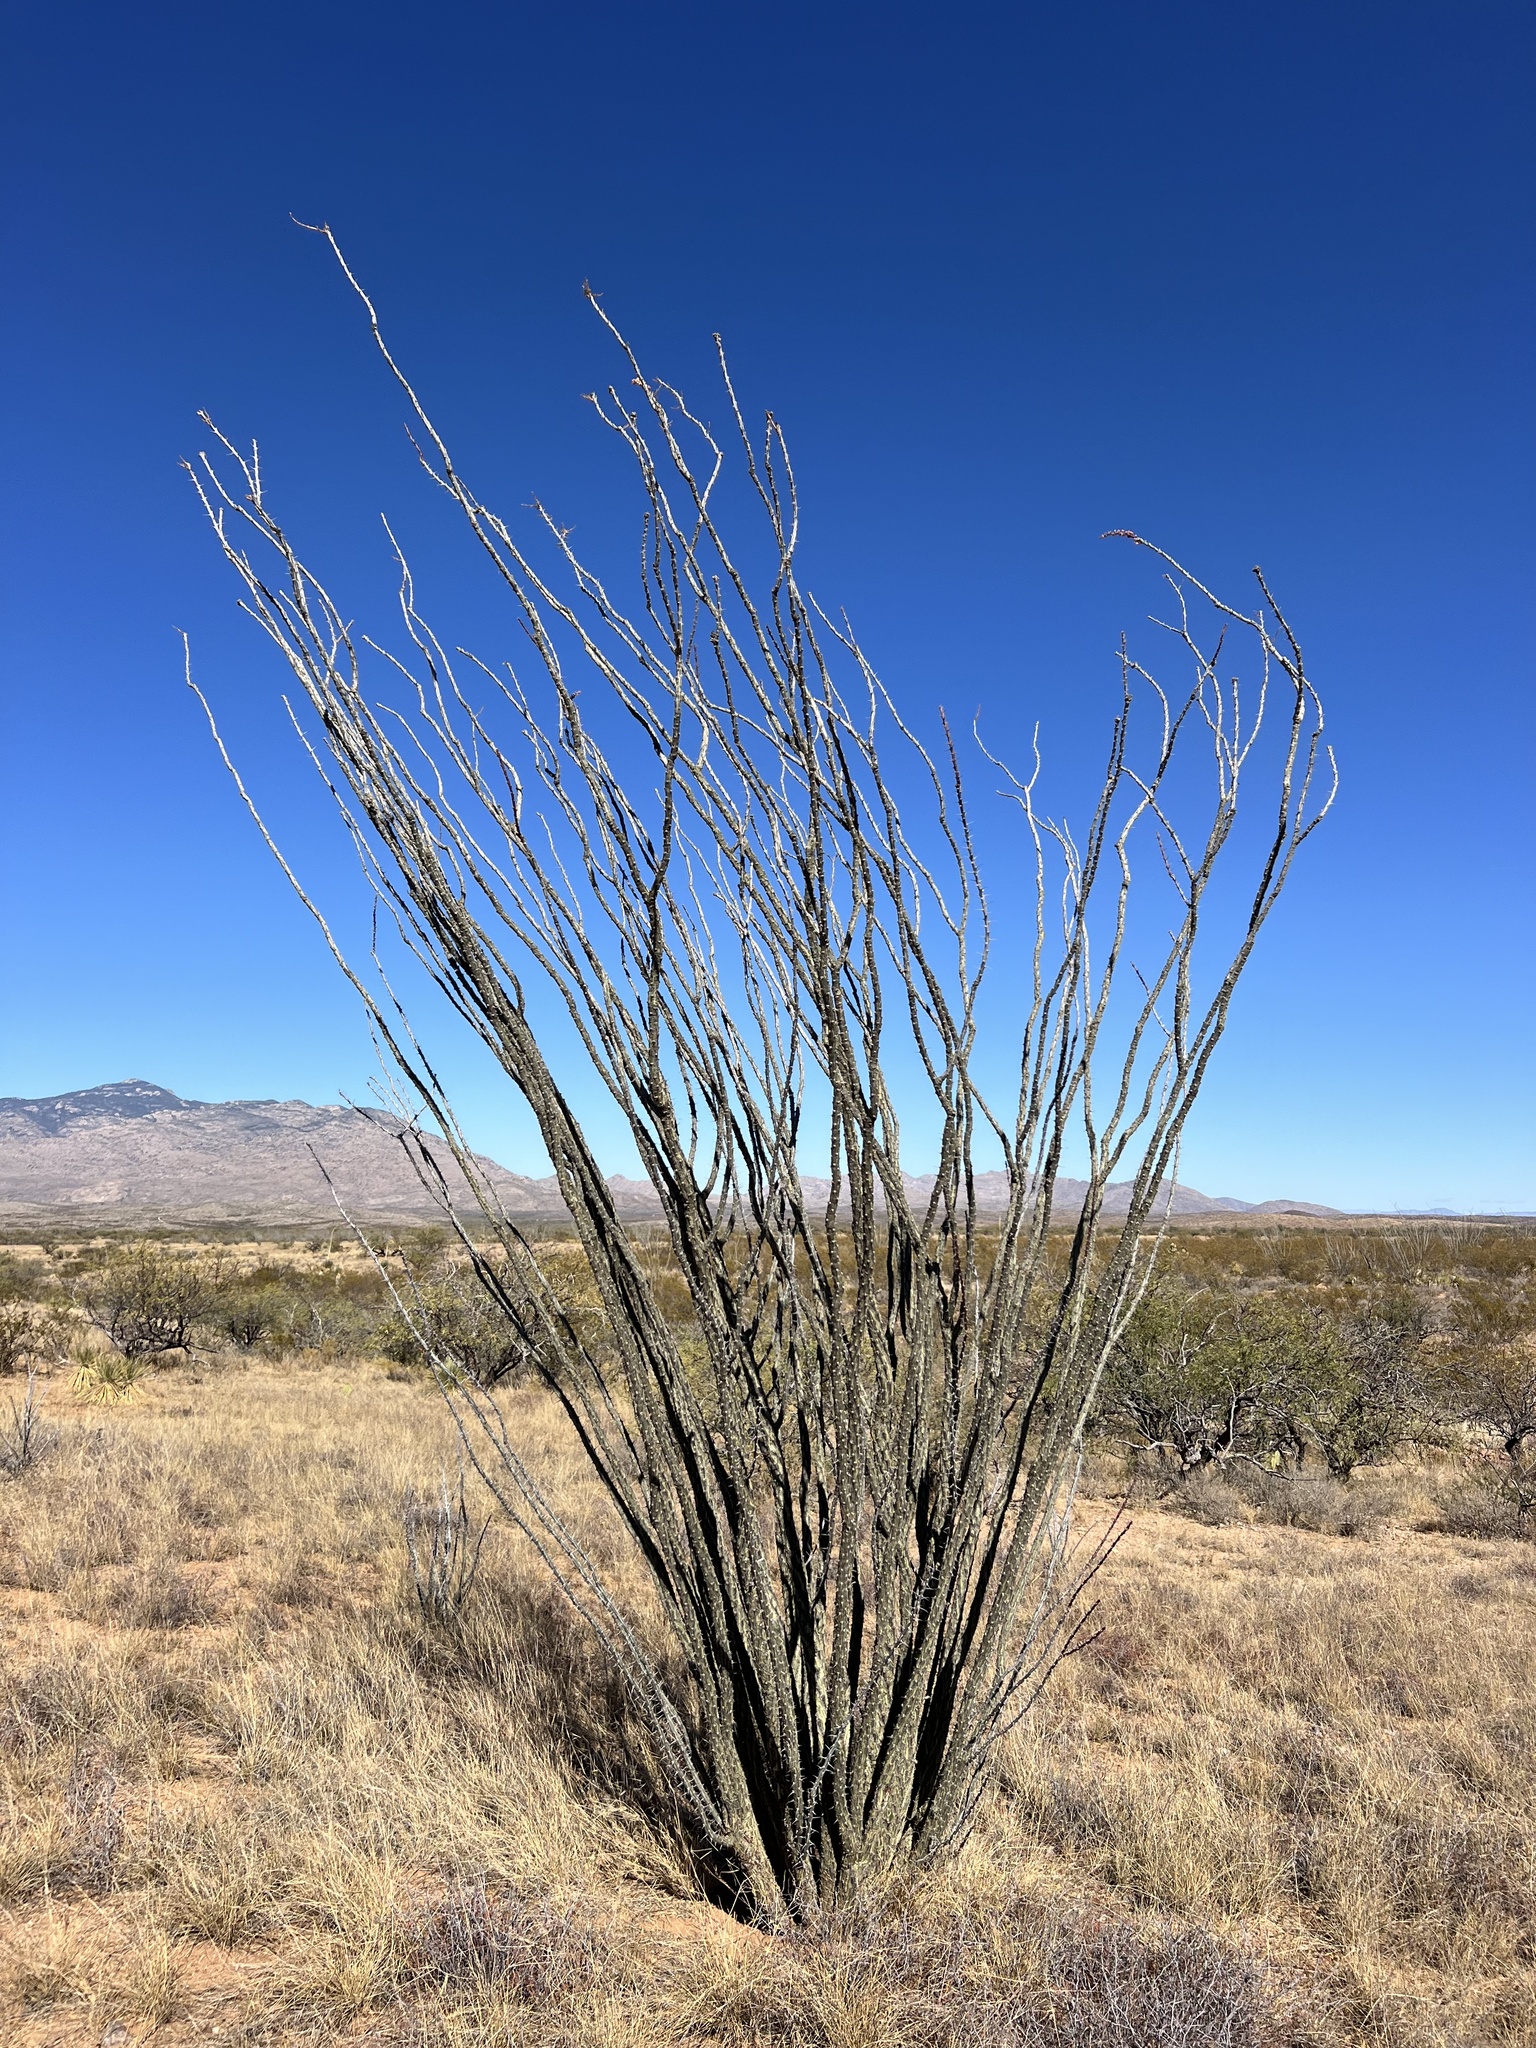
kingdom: Plantae
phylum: Tracheophyta
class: Magnoliopsida
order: Ericales
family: Fouquieriaceae
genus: Fouquieria
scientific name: Fouquieria splendens
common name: Vine-cactus
